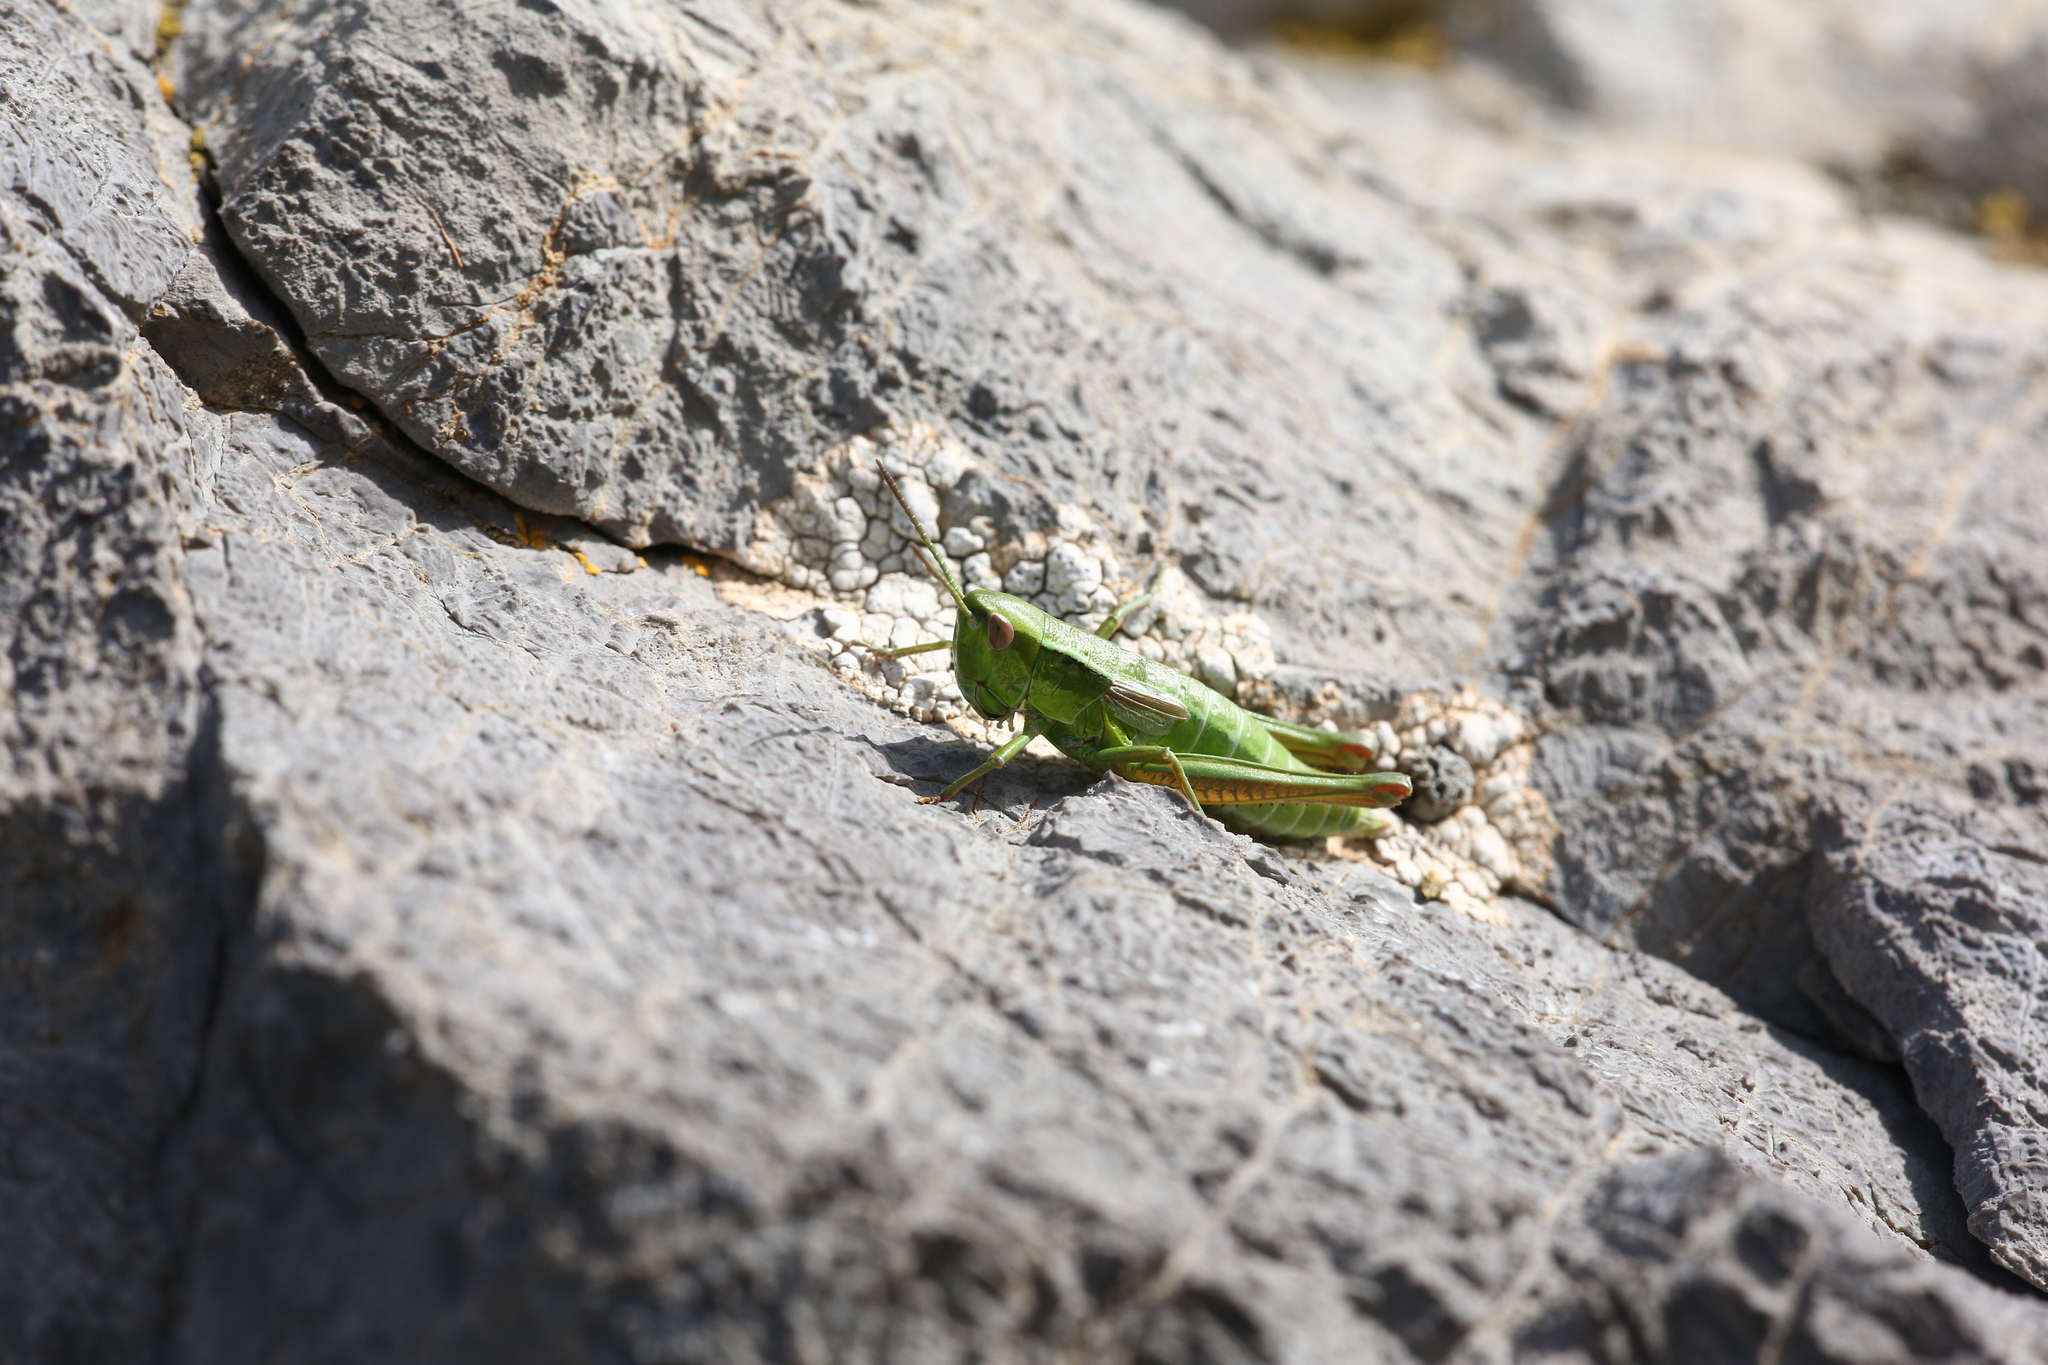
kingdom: Animalia
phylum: Arthropoda
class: Insecta
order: Orthoptera
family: Acrididae
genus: Euthystira
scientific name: Euthystira brachyptera
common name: Small gold grasshopper
